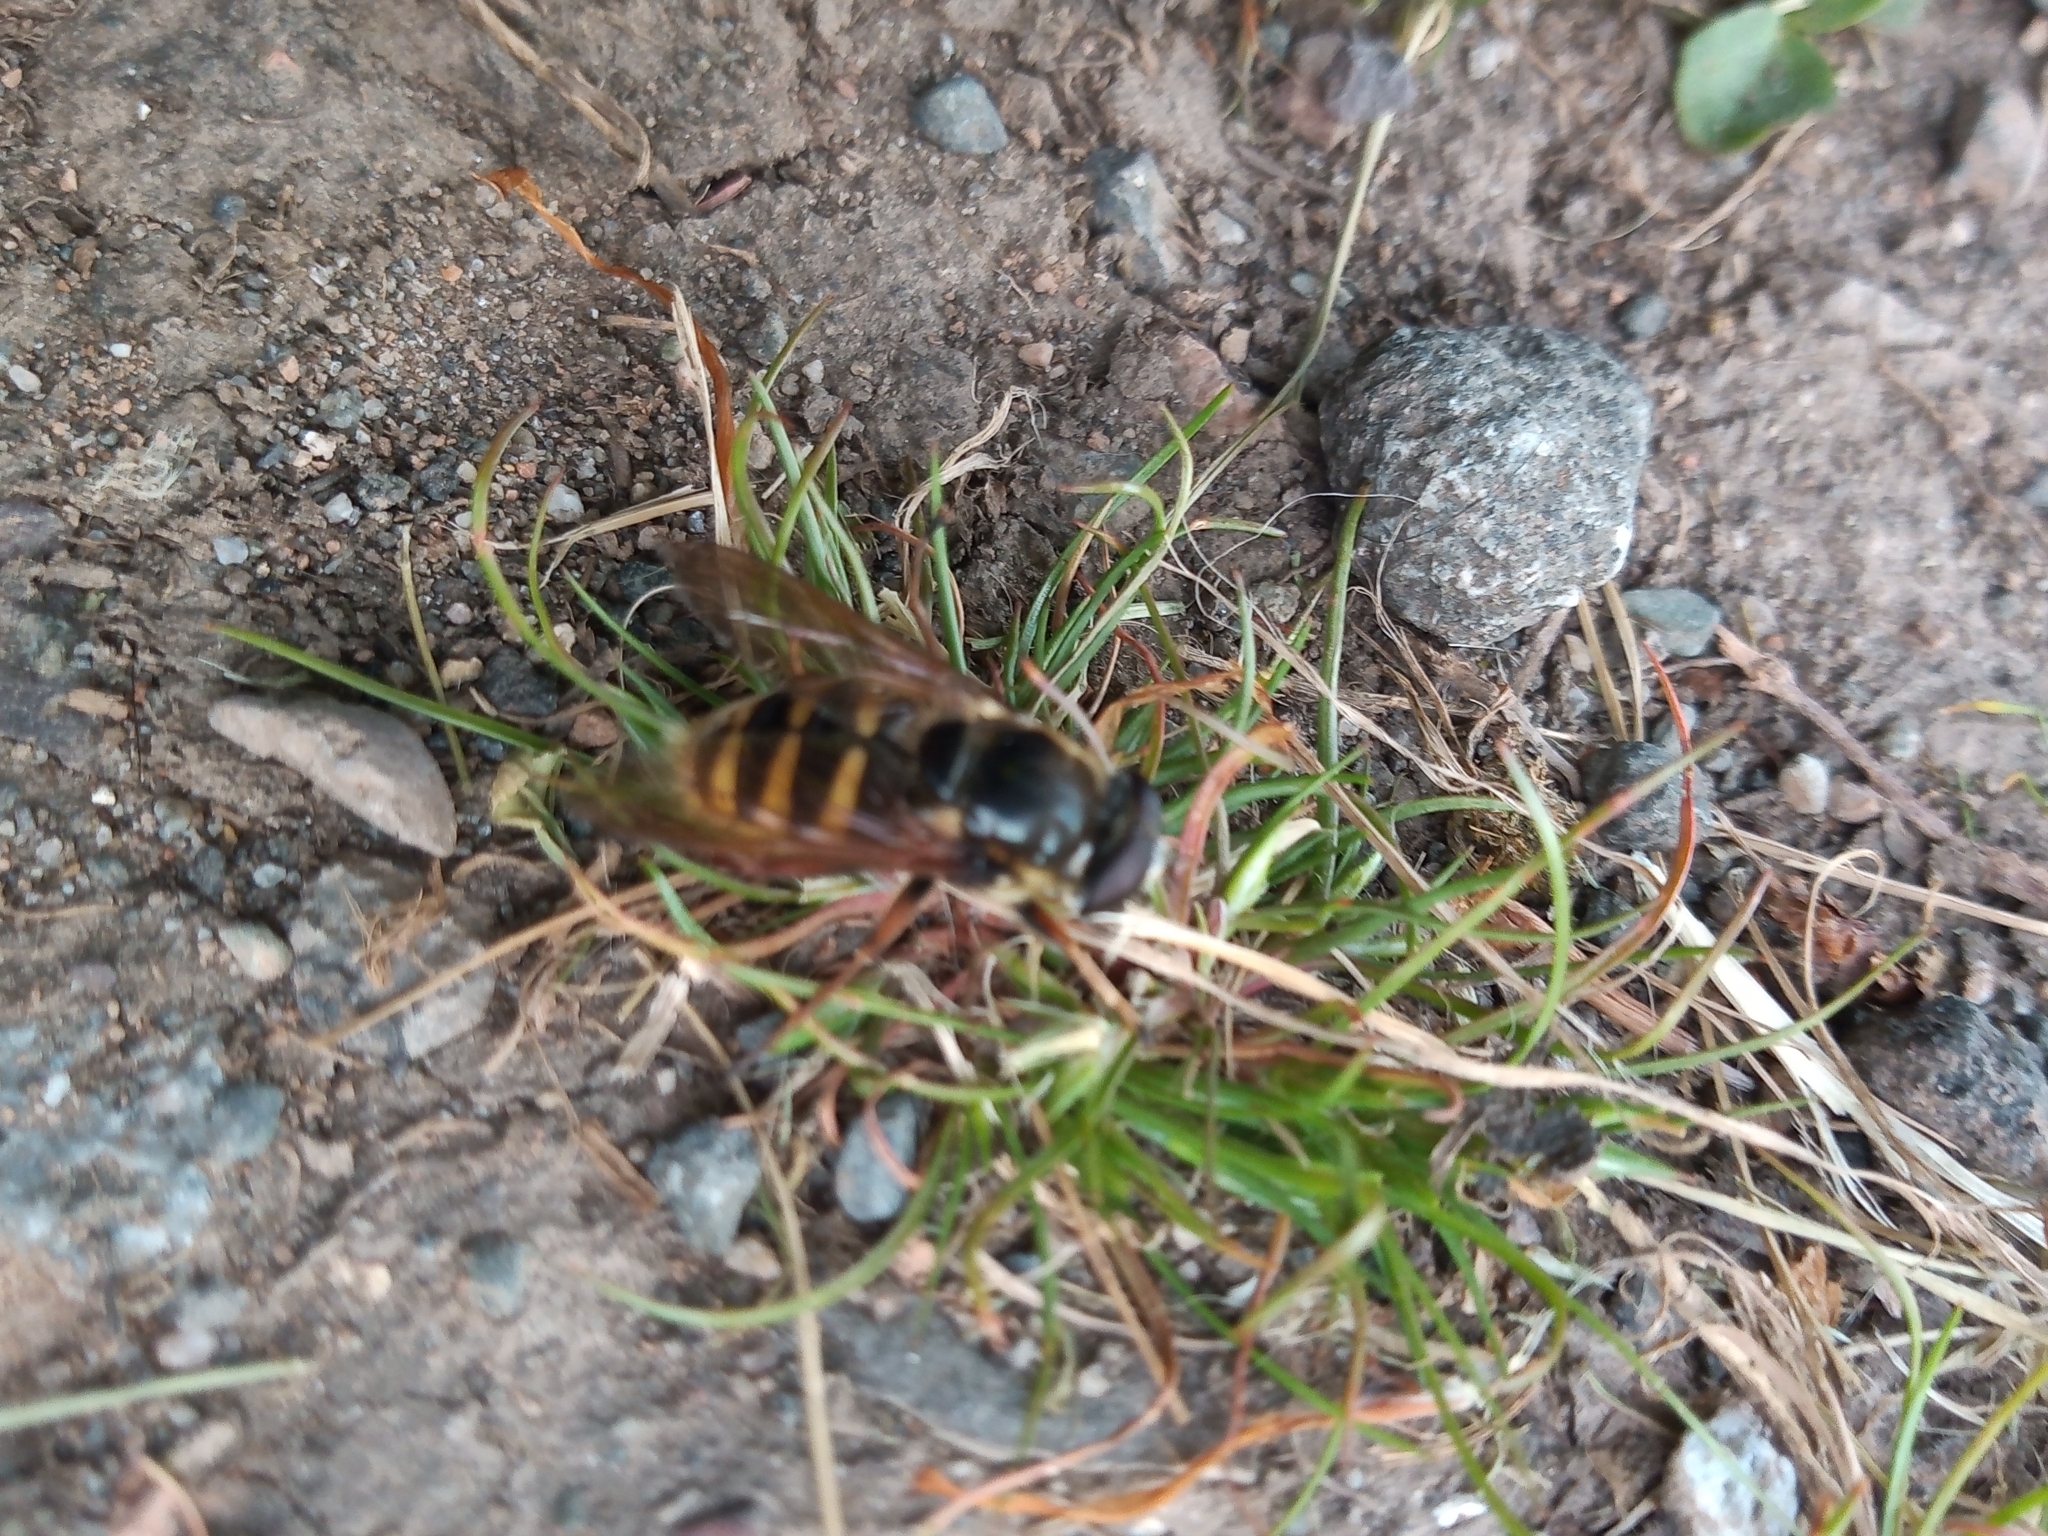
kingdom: Animalia
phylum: Arthropoda
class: Insecta
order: Diptera
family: Syrphidae
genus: Sericomyia
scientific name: Sericomyia silentis
